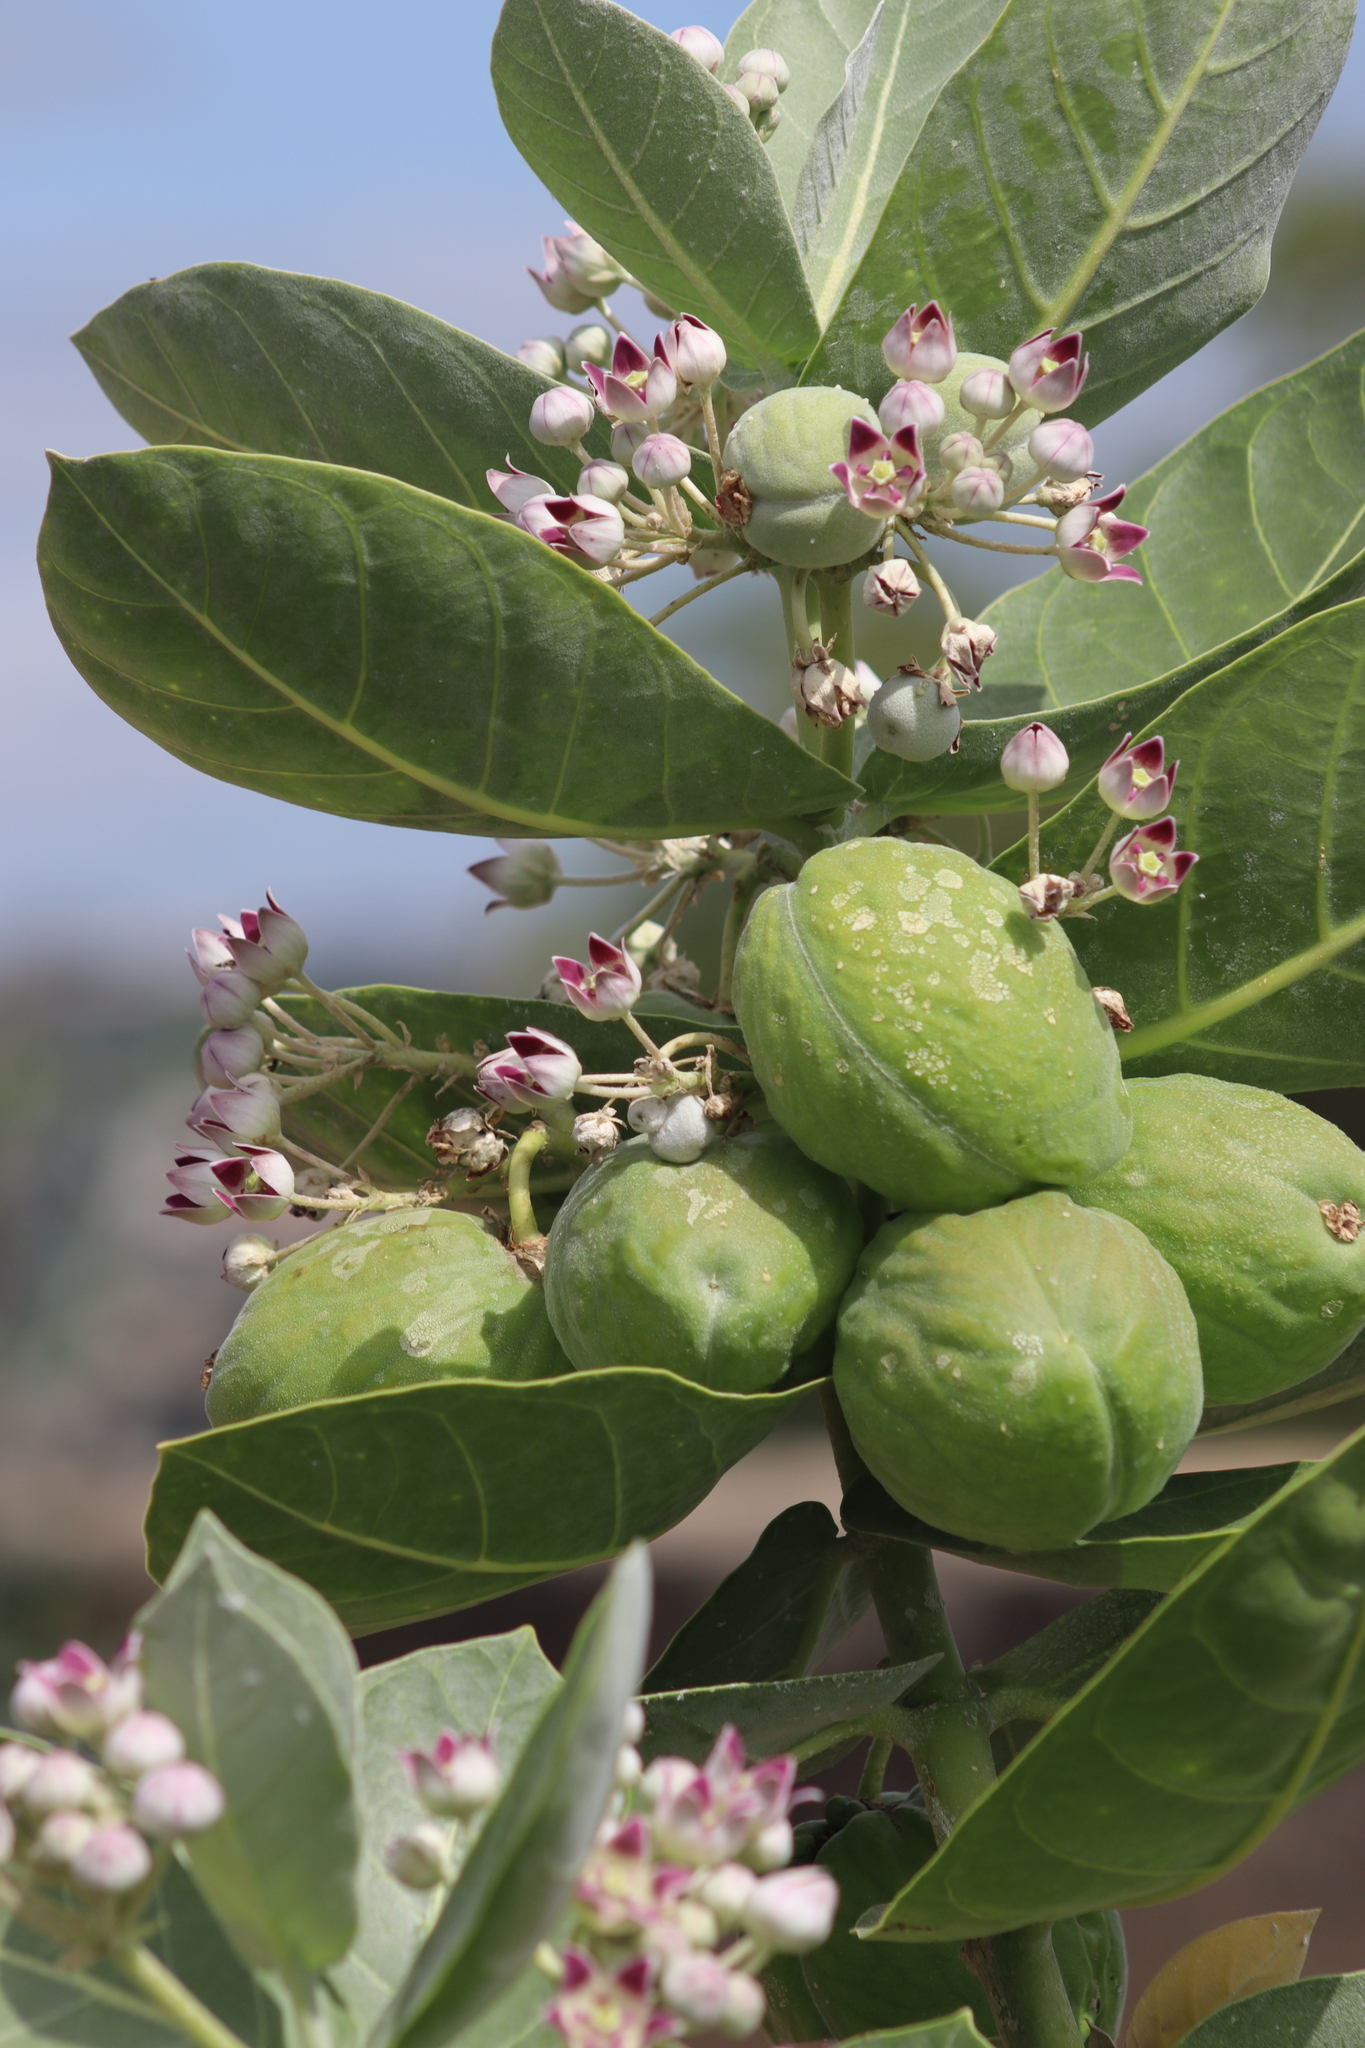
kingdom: Plantae
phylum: Tracheophyta
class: Magnoliopsida
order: Gentianales
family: Apocynaceae
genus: Calotropis
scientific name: Calotropis procera
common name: Roostertree
